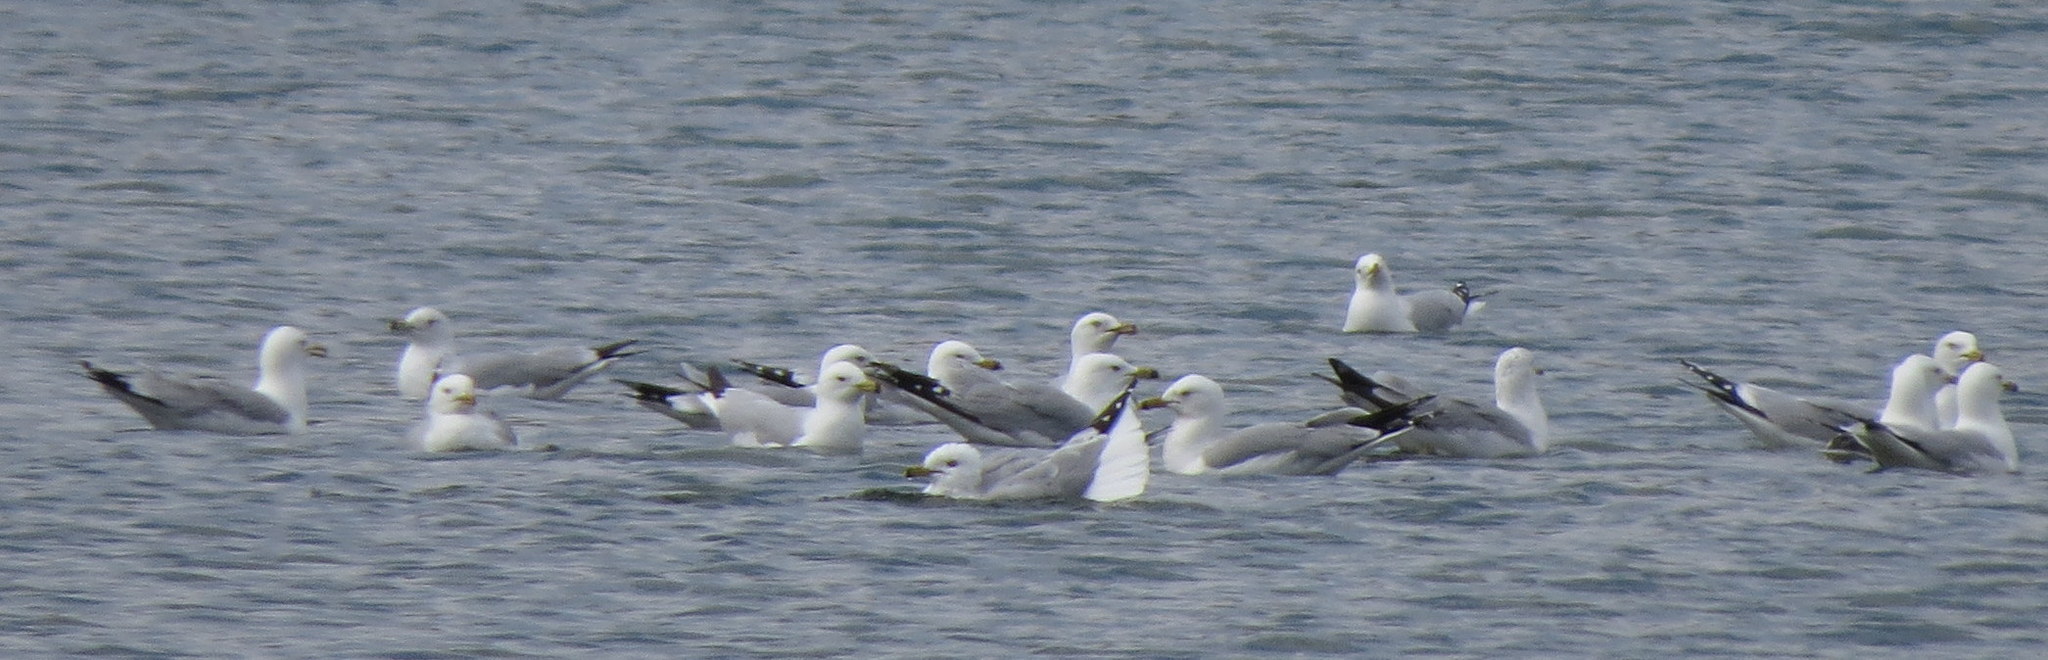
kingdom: Animalia
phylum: Chordata
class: Aves
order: Charadriiformes
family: Laridae
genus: Larus
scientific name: Larus delawarensis
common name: Ring-billed gull
